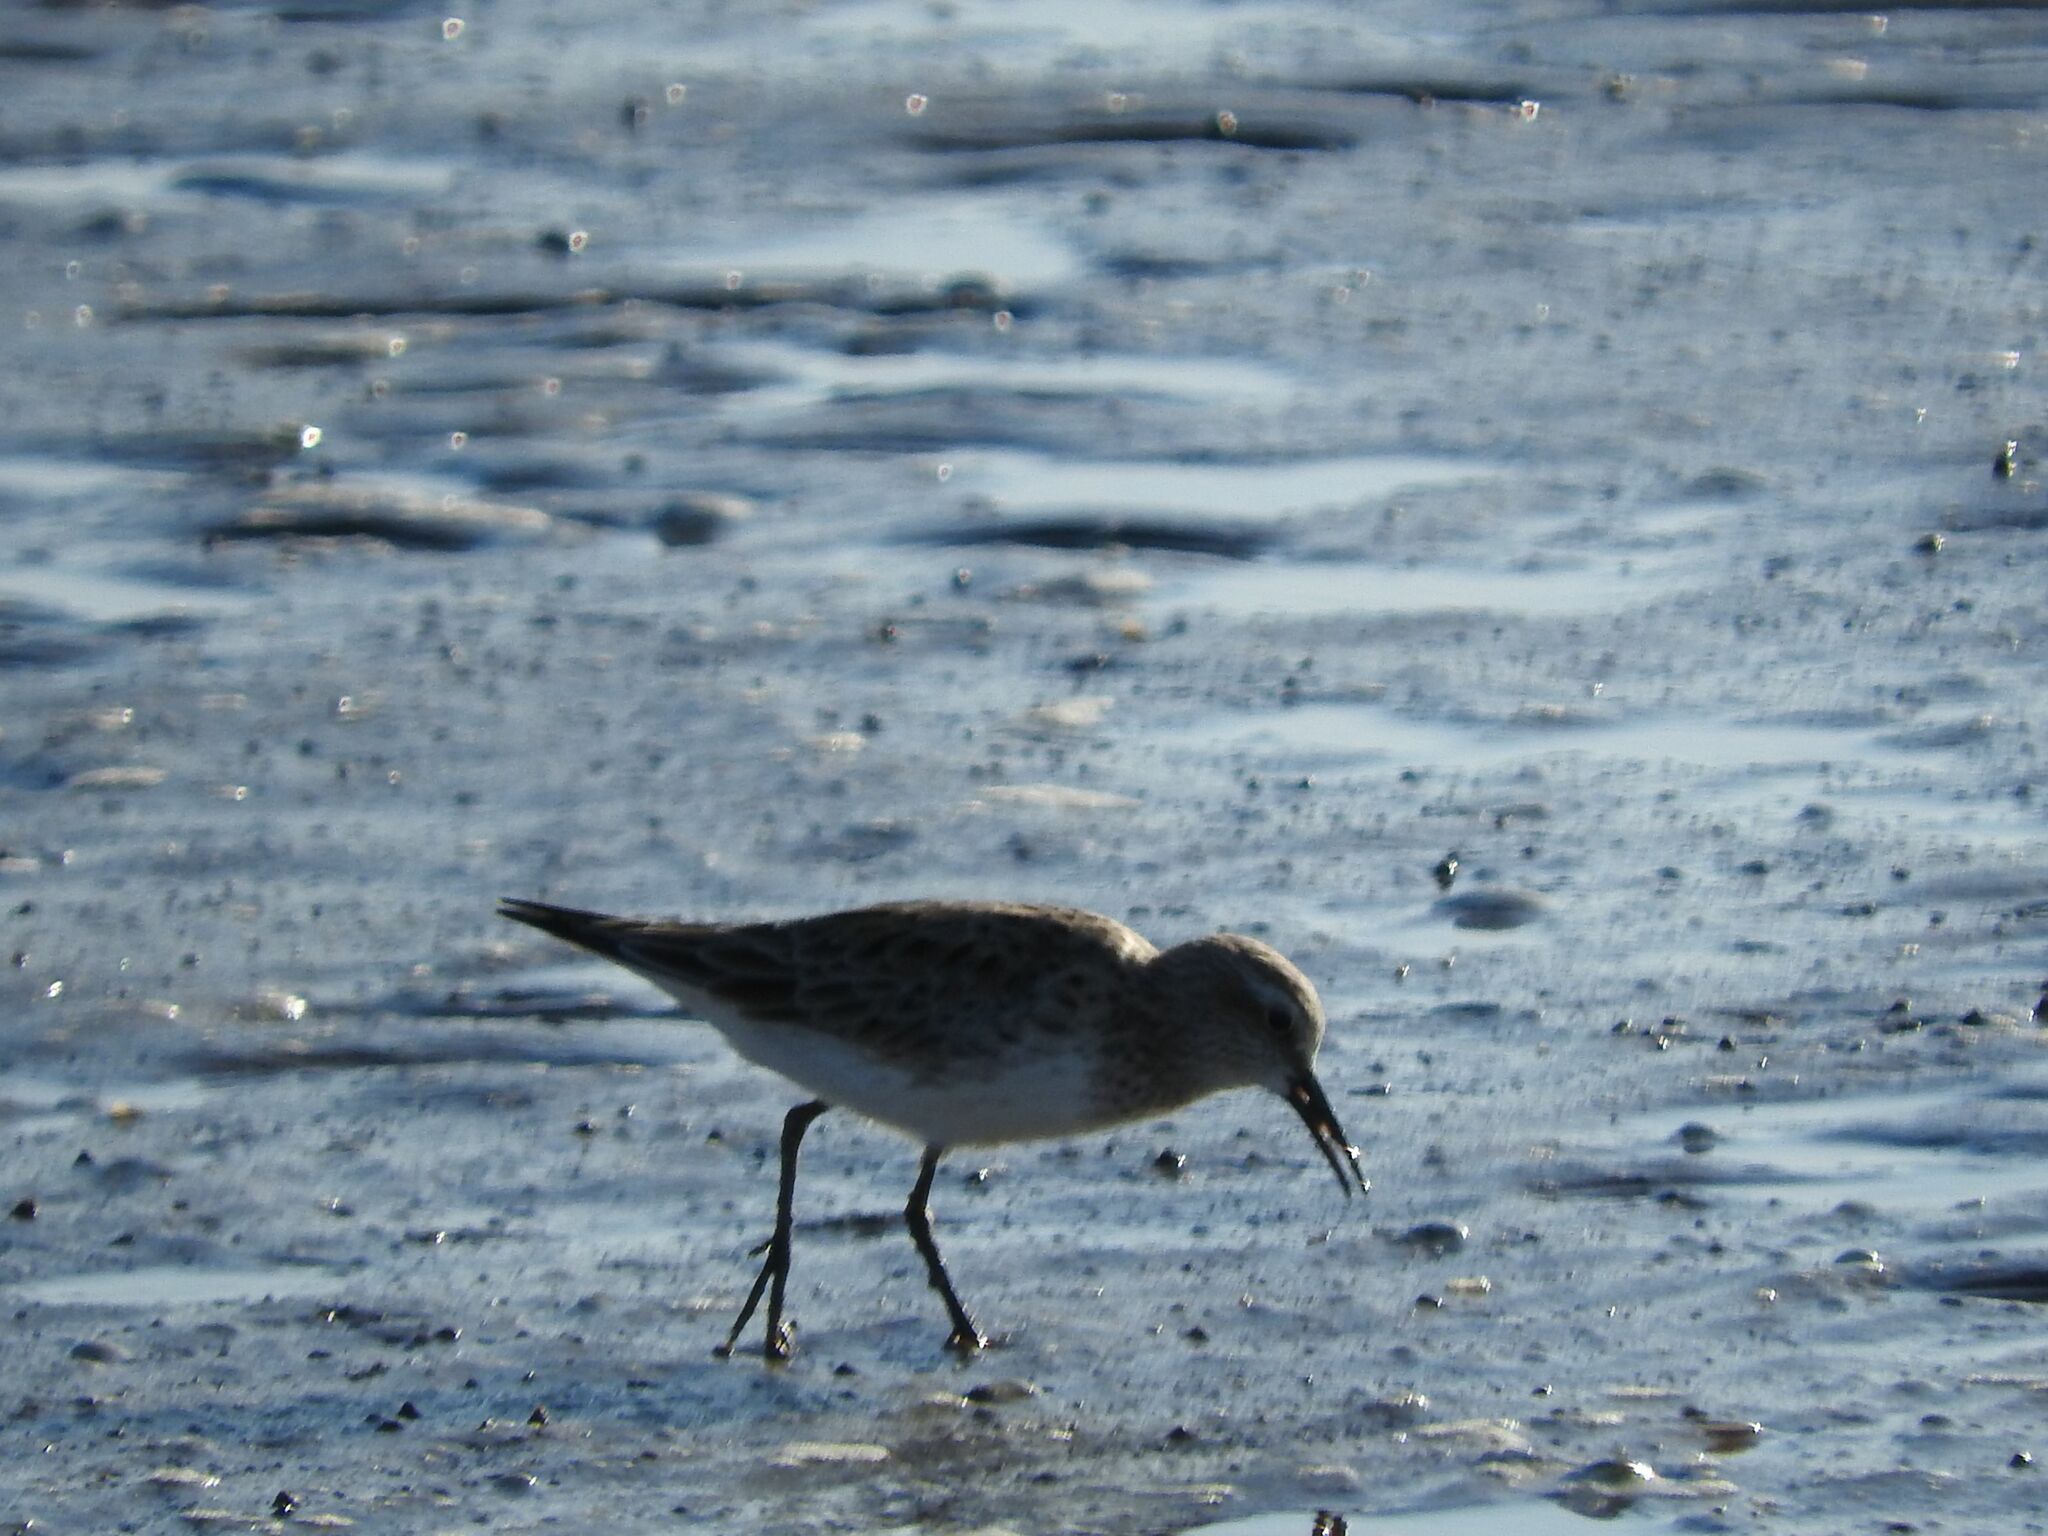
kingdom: Animalia
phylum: Chordata
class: Aves
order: Charadriiformes
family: Scolopacidae
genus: Calidris
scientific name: Calidris fuscicollis
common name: White-rumped sandpiper
